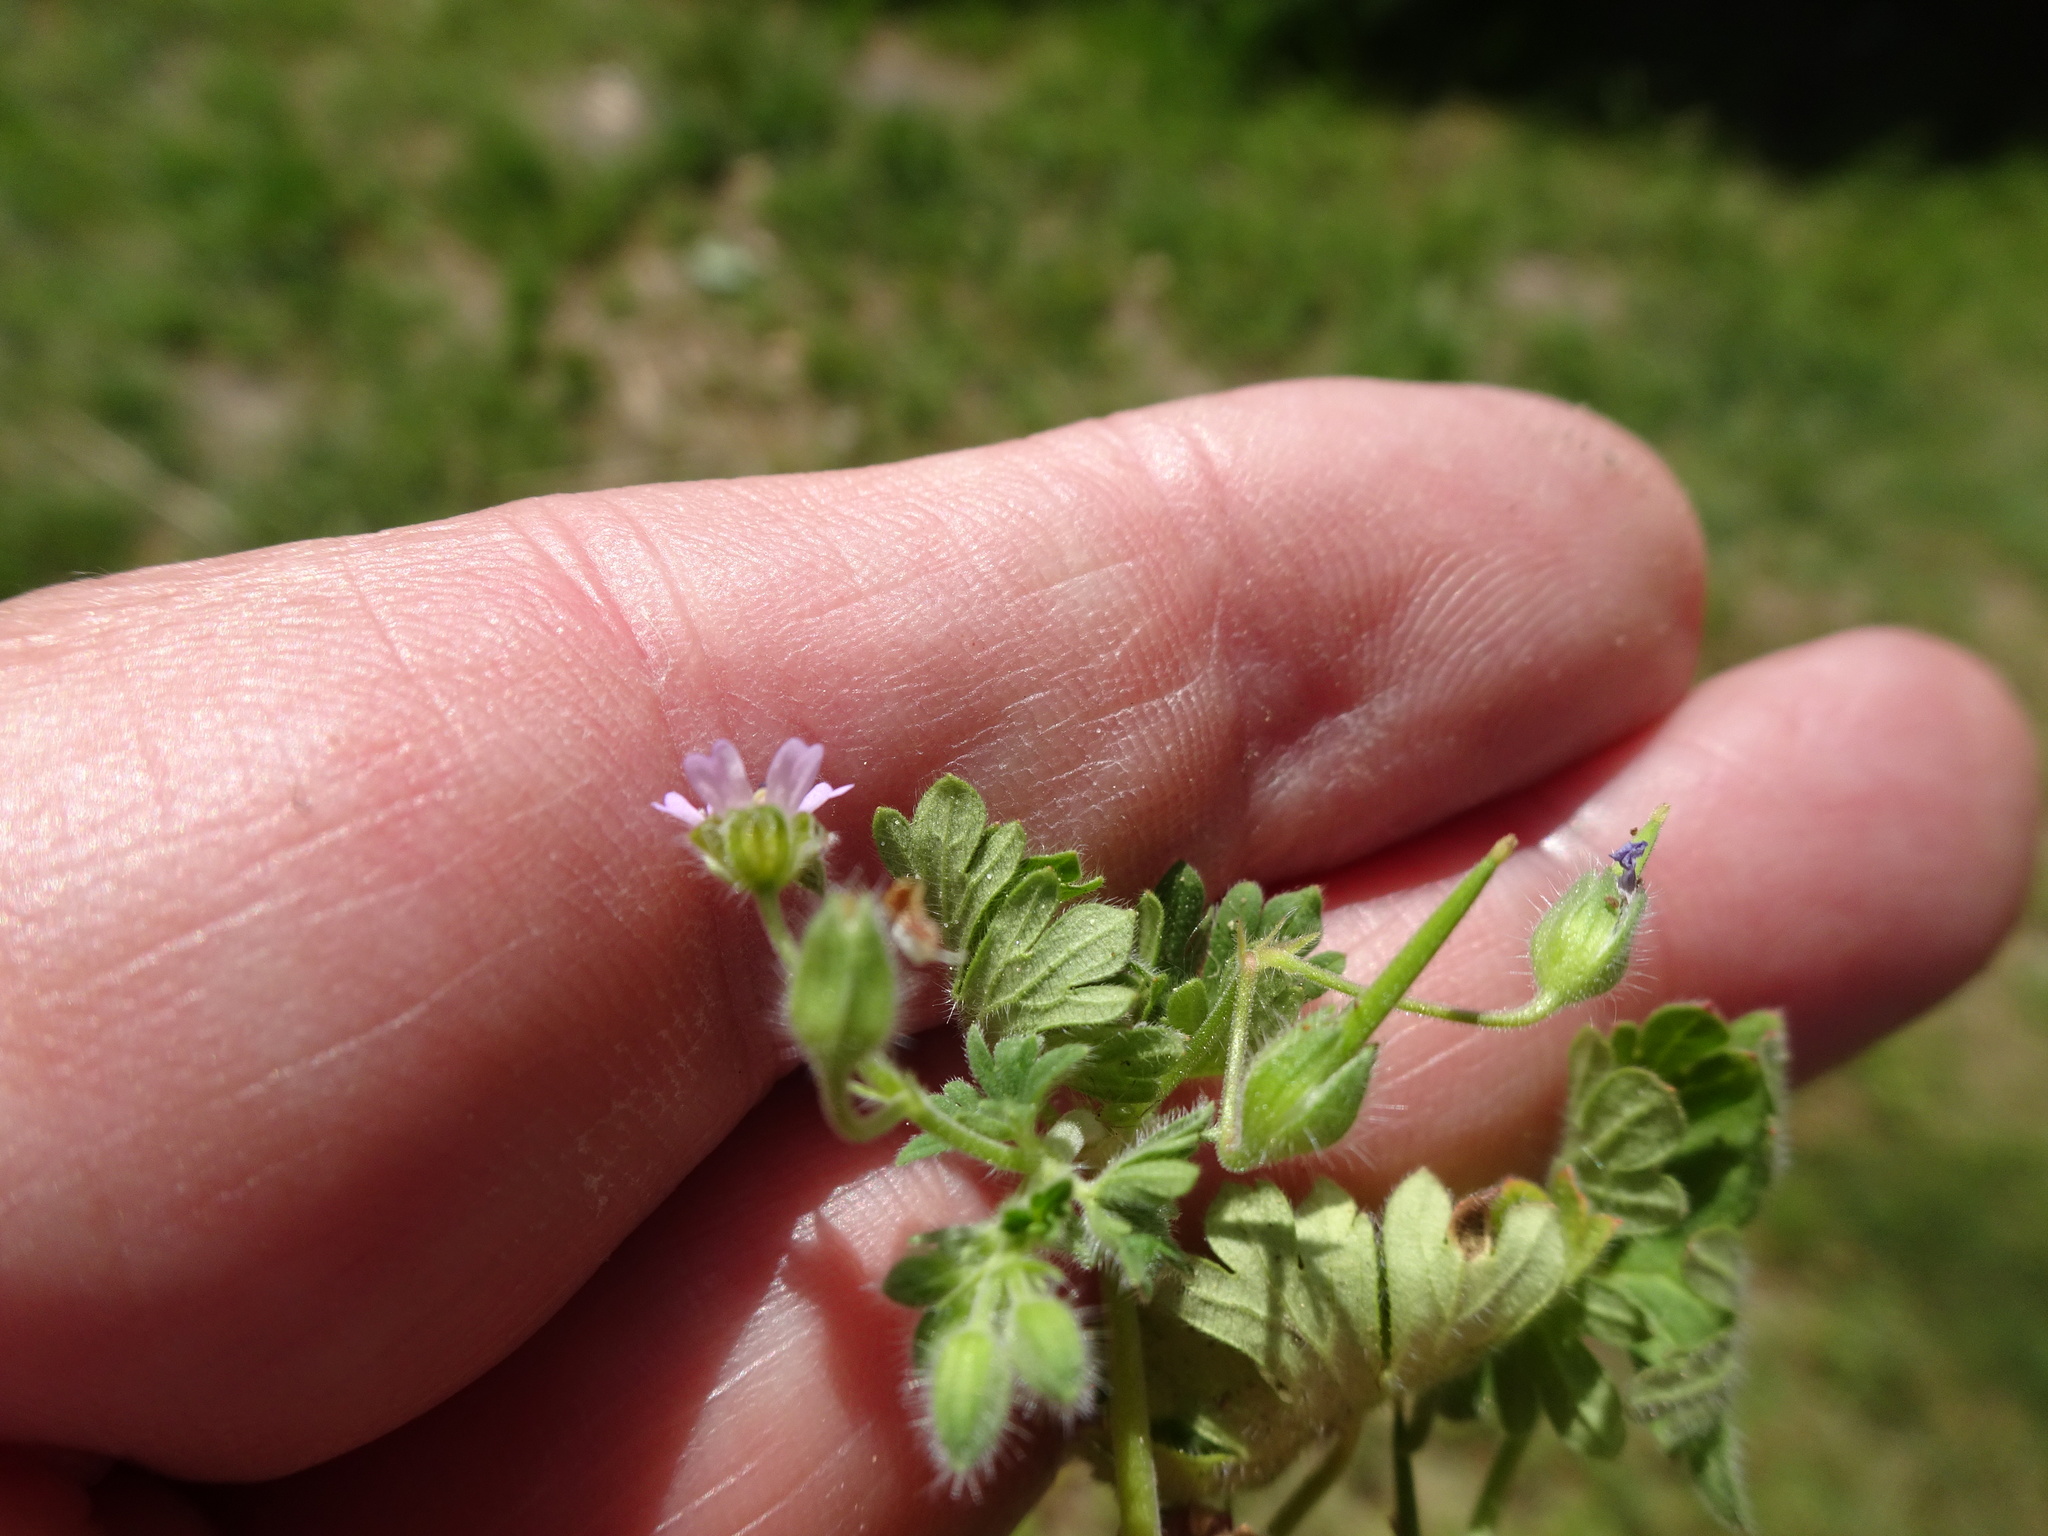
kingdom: Plantae
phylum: Tracheophyta
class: Magnoliopsida
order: Geraniales
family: Geraniaceae
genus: Geranium
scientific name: Geranium molle
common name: Dove's-foot crane's-bill
